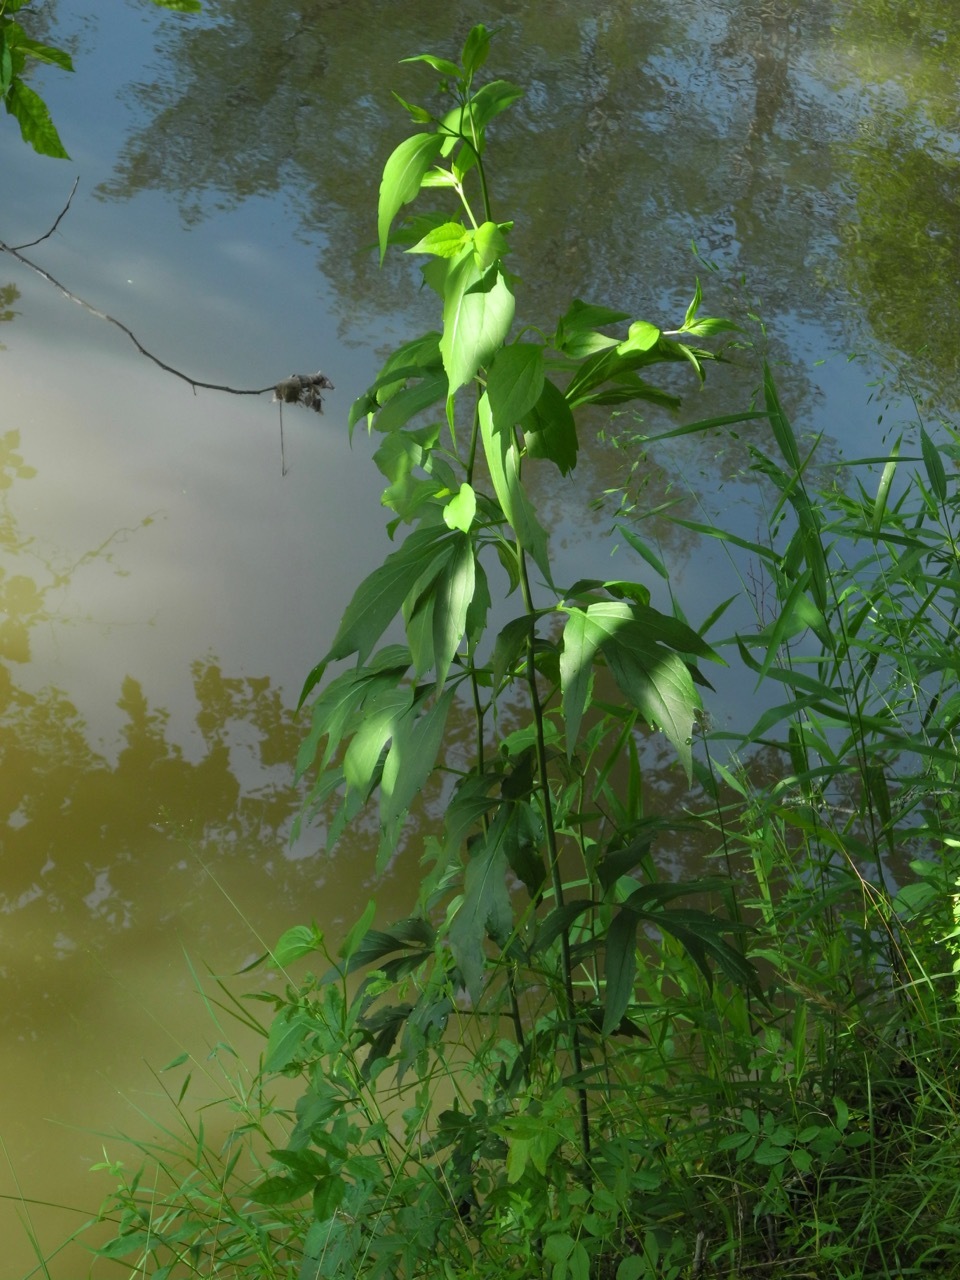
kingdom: Plantae
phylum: Tracheophyta
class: Magnoliopsida
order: Asterales
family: Asteraceae
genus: Rudbeckia
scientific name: Rudbeckia laciniata
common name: Coneflower
